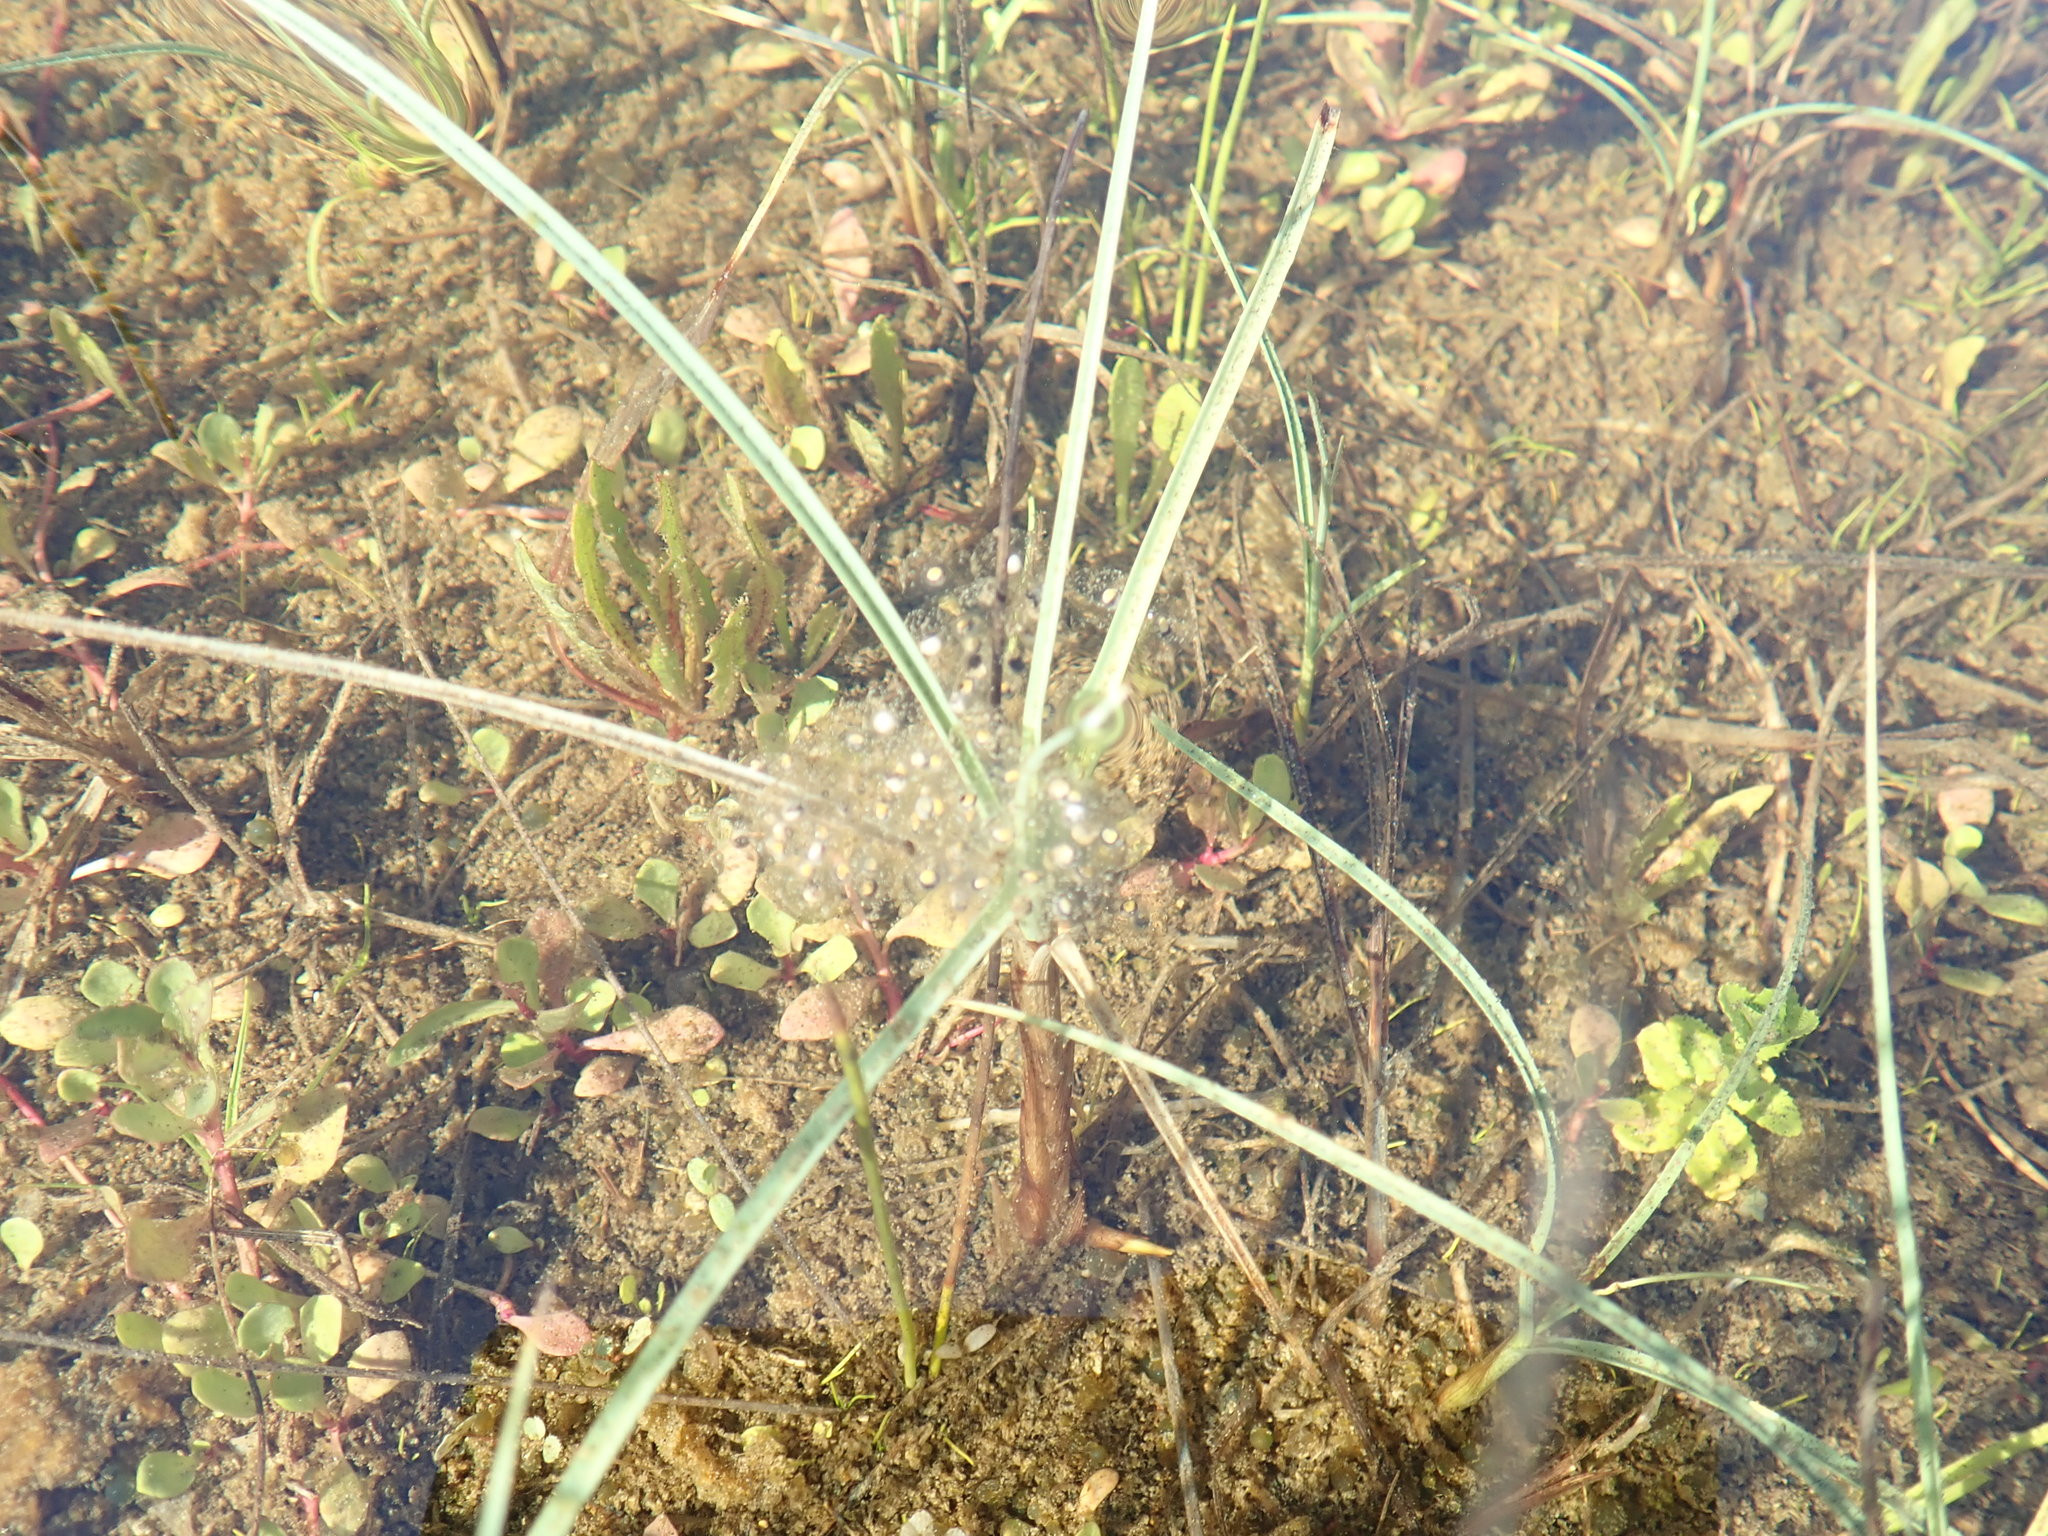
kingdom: Animalia
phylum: Chordata
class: Amphibia
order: Anura
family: Pelodryadidae
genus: Litoria
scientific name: Litoria ewingii
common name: Southern brown tree frog
